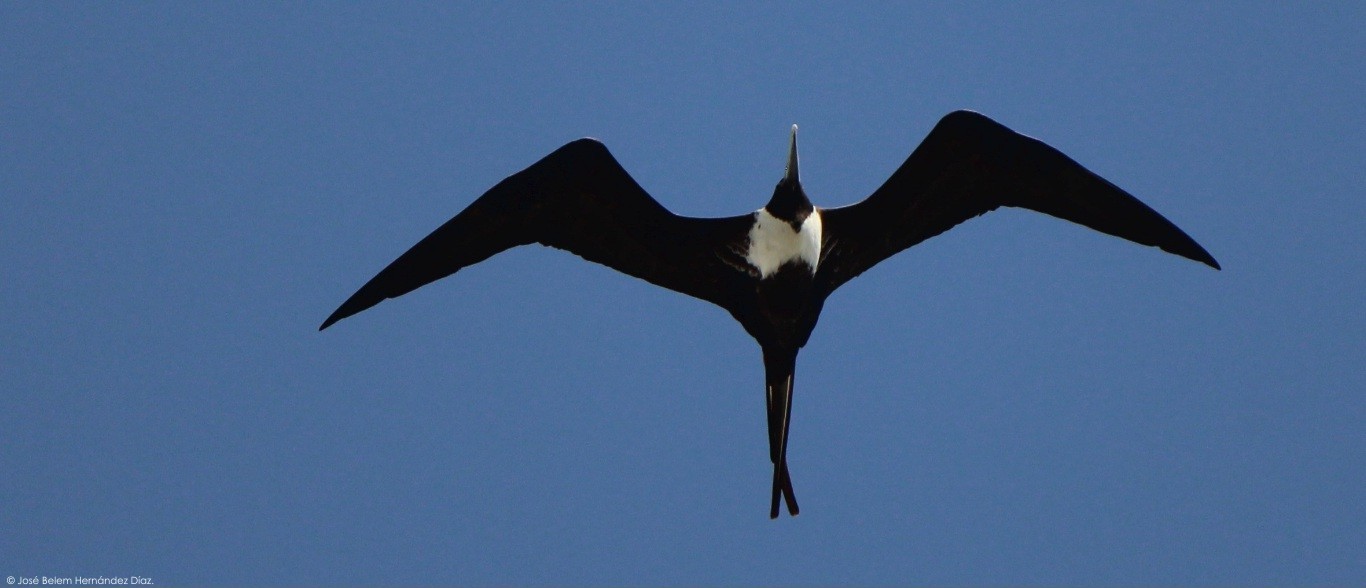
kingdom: Animalia
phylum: Chordata
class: Aves
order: Suliformes
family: Fregatidae
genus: Fregata
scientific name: Fregata magnificens
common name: Magnificent frigatebird
